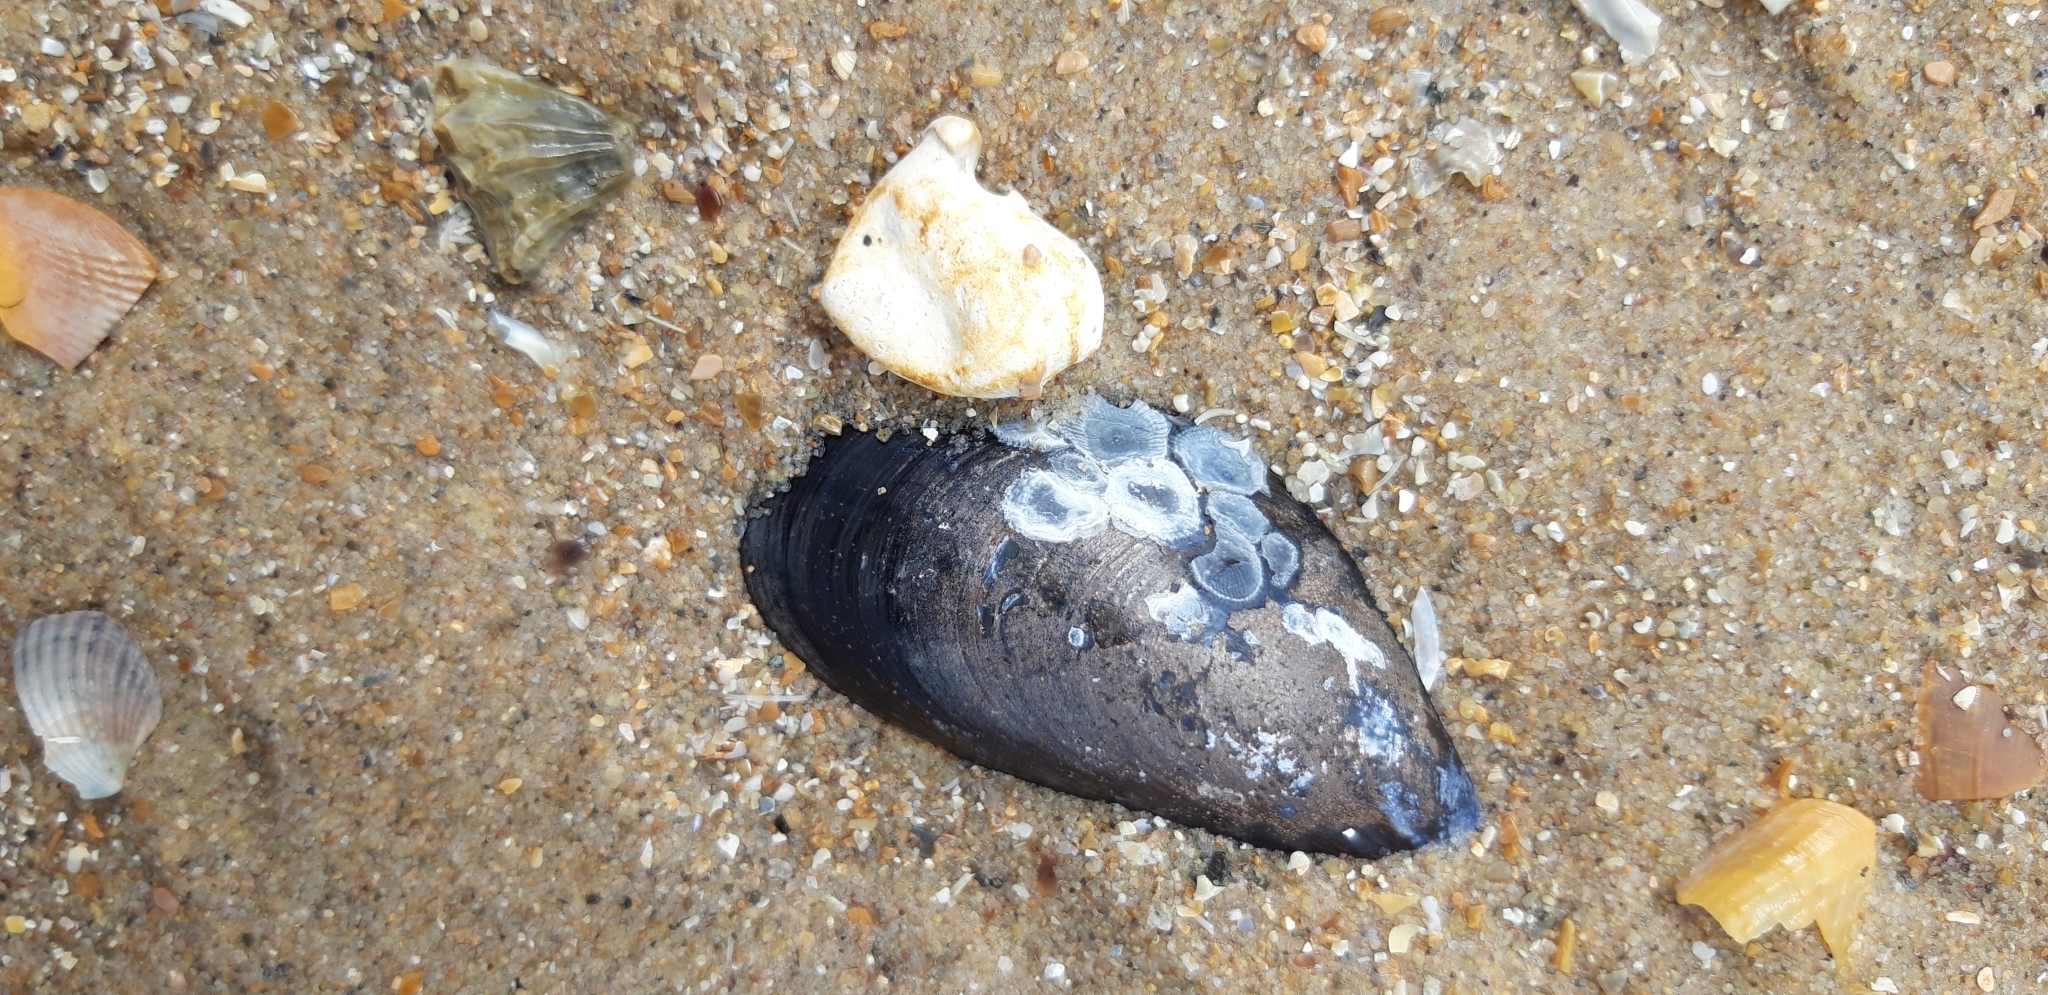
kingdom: Animalia
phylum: Mollusca
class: Bivalvia
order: Mytilida
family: Mytilidae
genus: Mytilus
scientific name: Mytilus edulis
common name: Blue mussel
